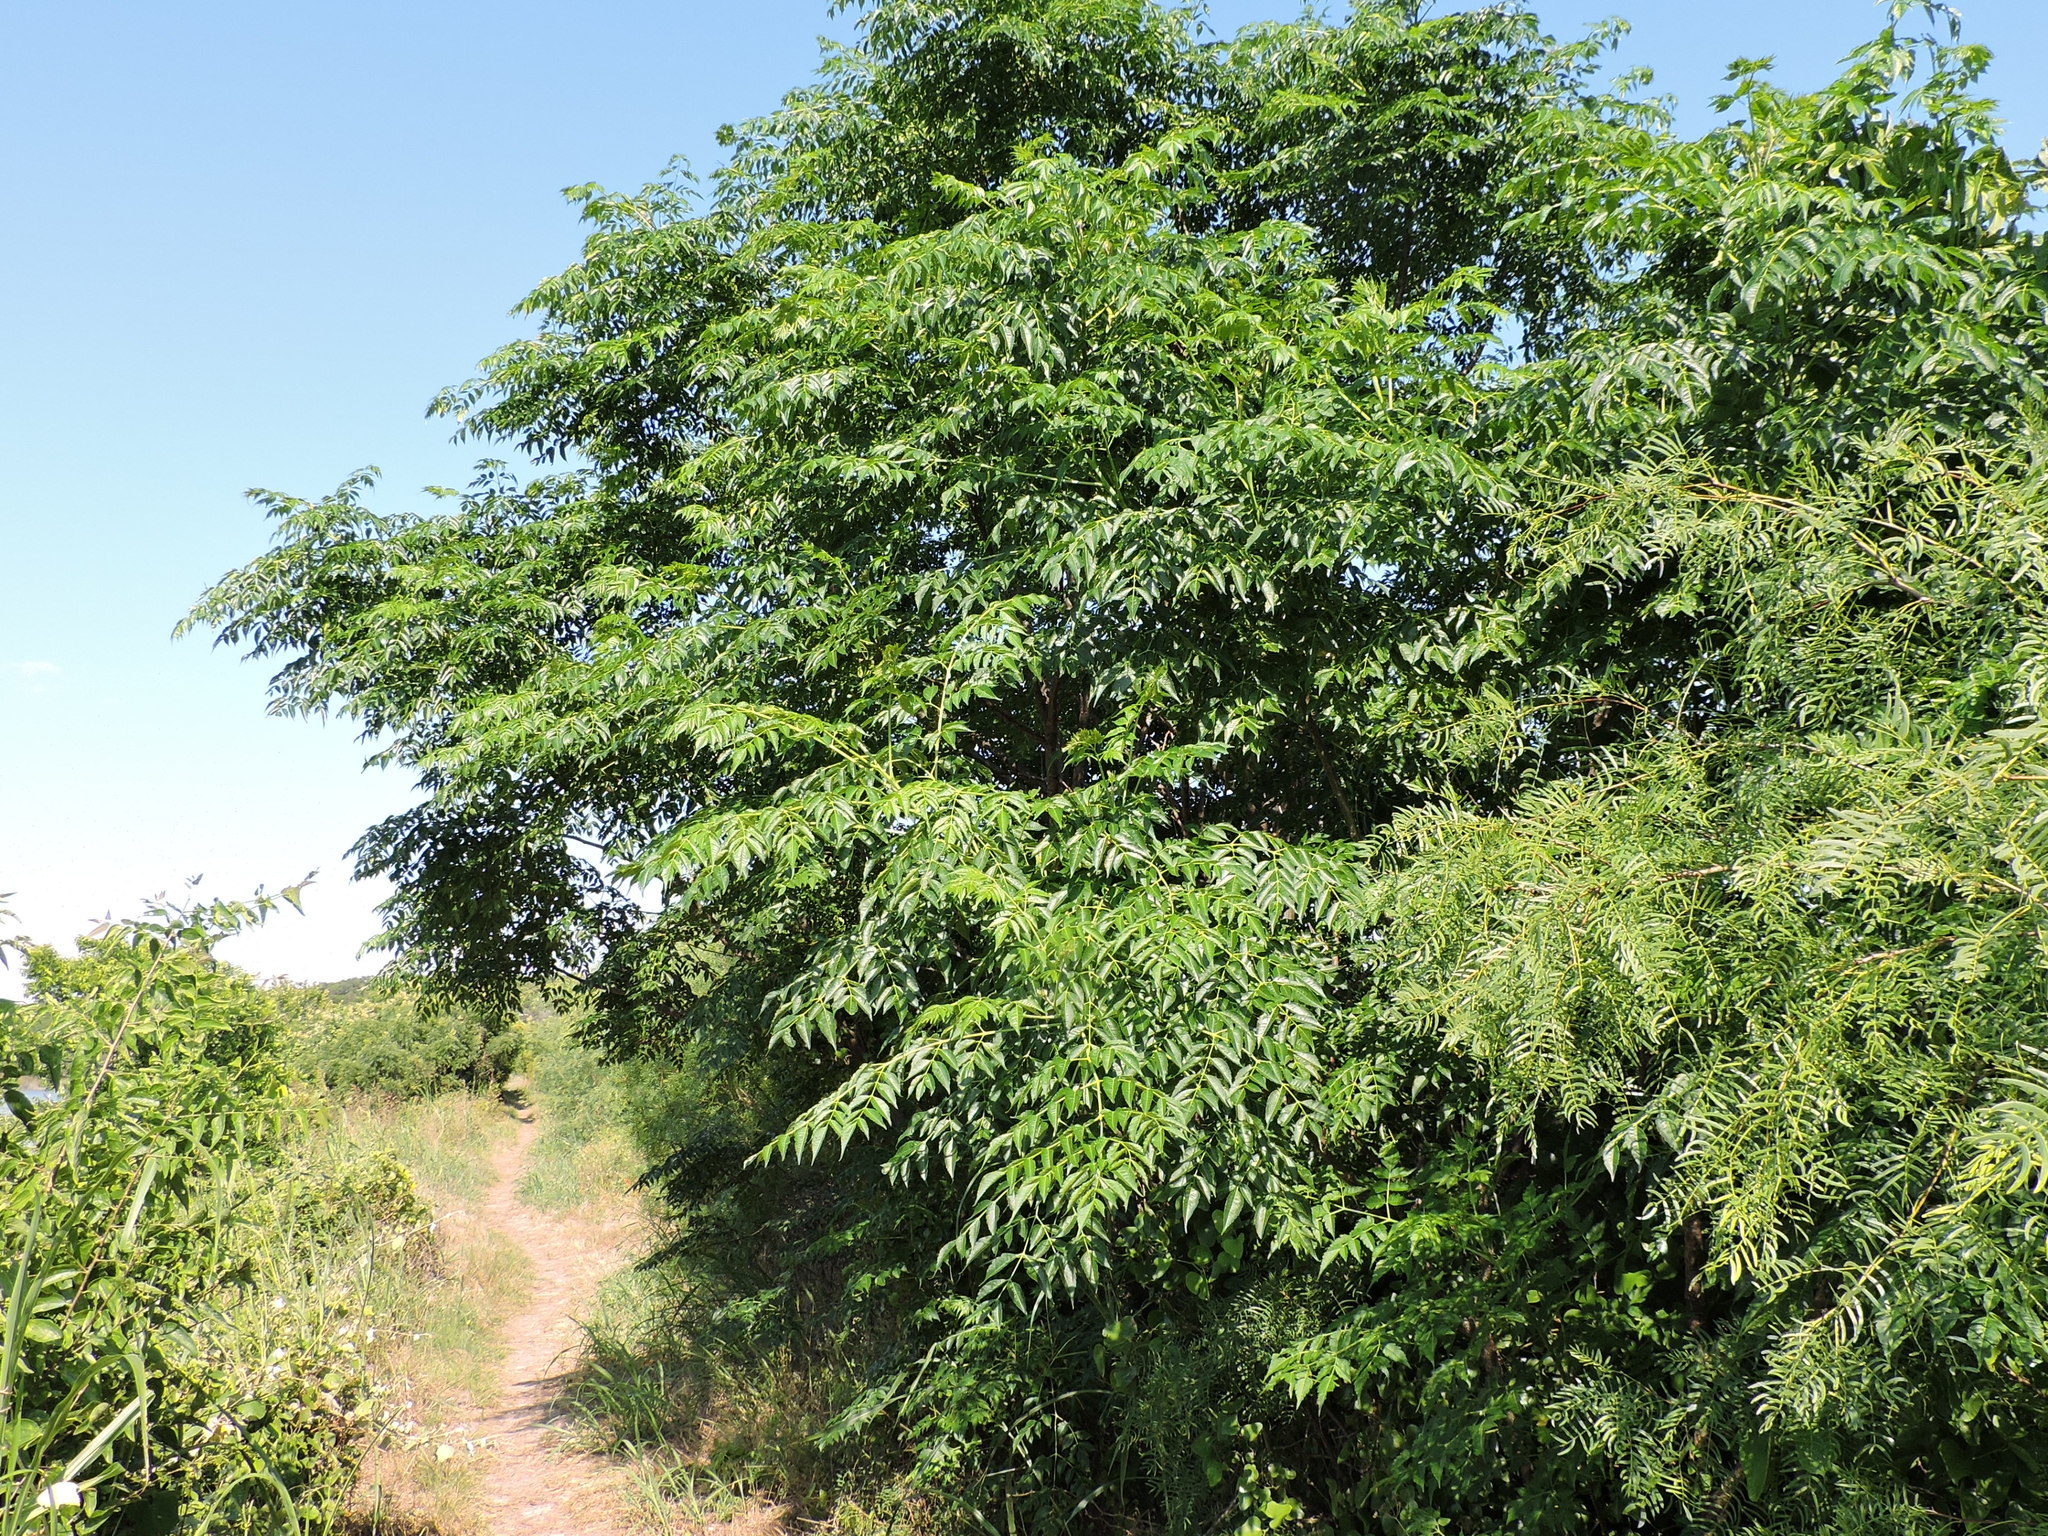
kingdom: Plantae
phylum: Tracheophyta
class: Magnoliopsida
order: Sapindales
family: Meliaceae
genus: Melia
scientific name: Melia azedarach
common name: Chinaberrytree
